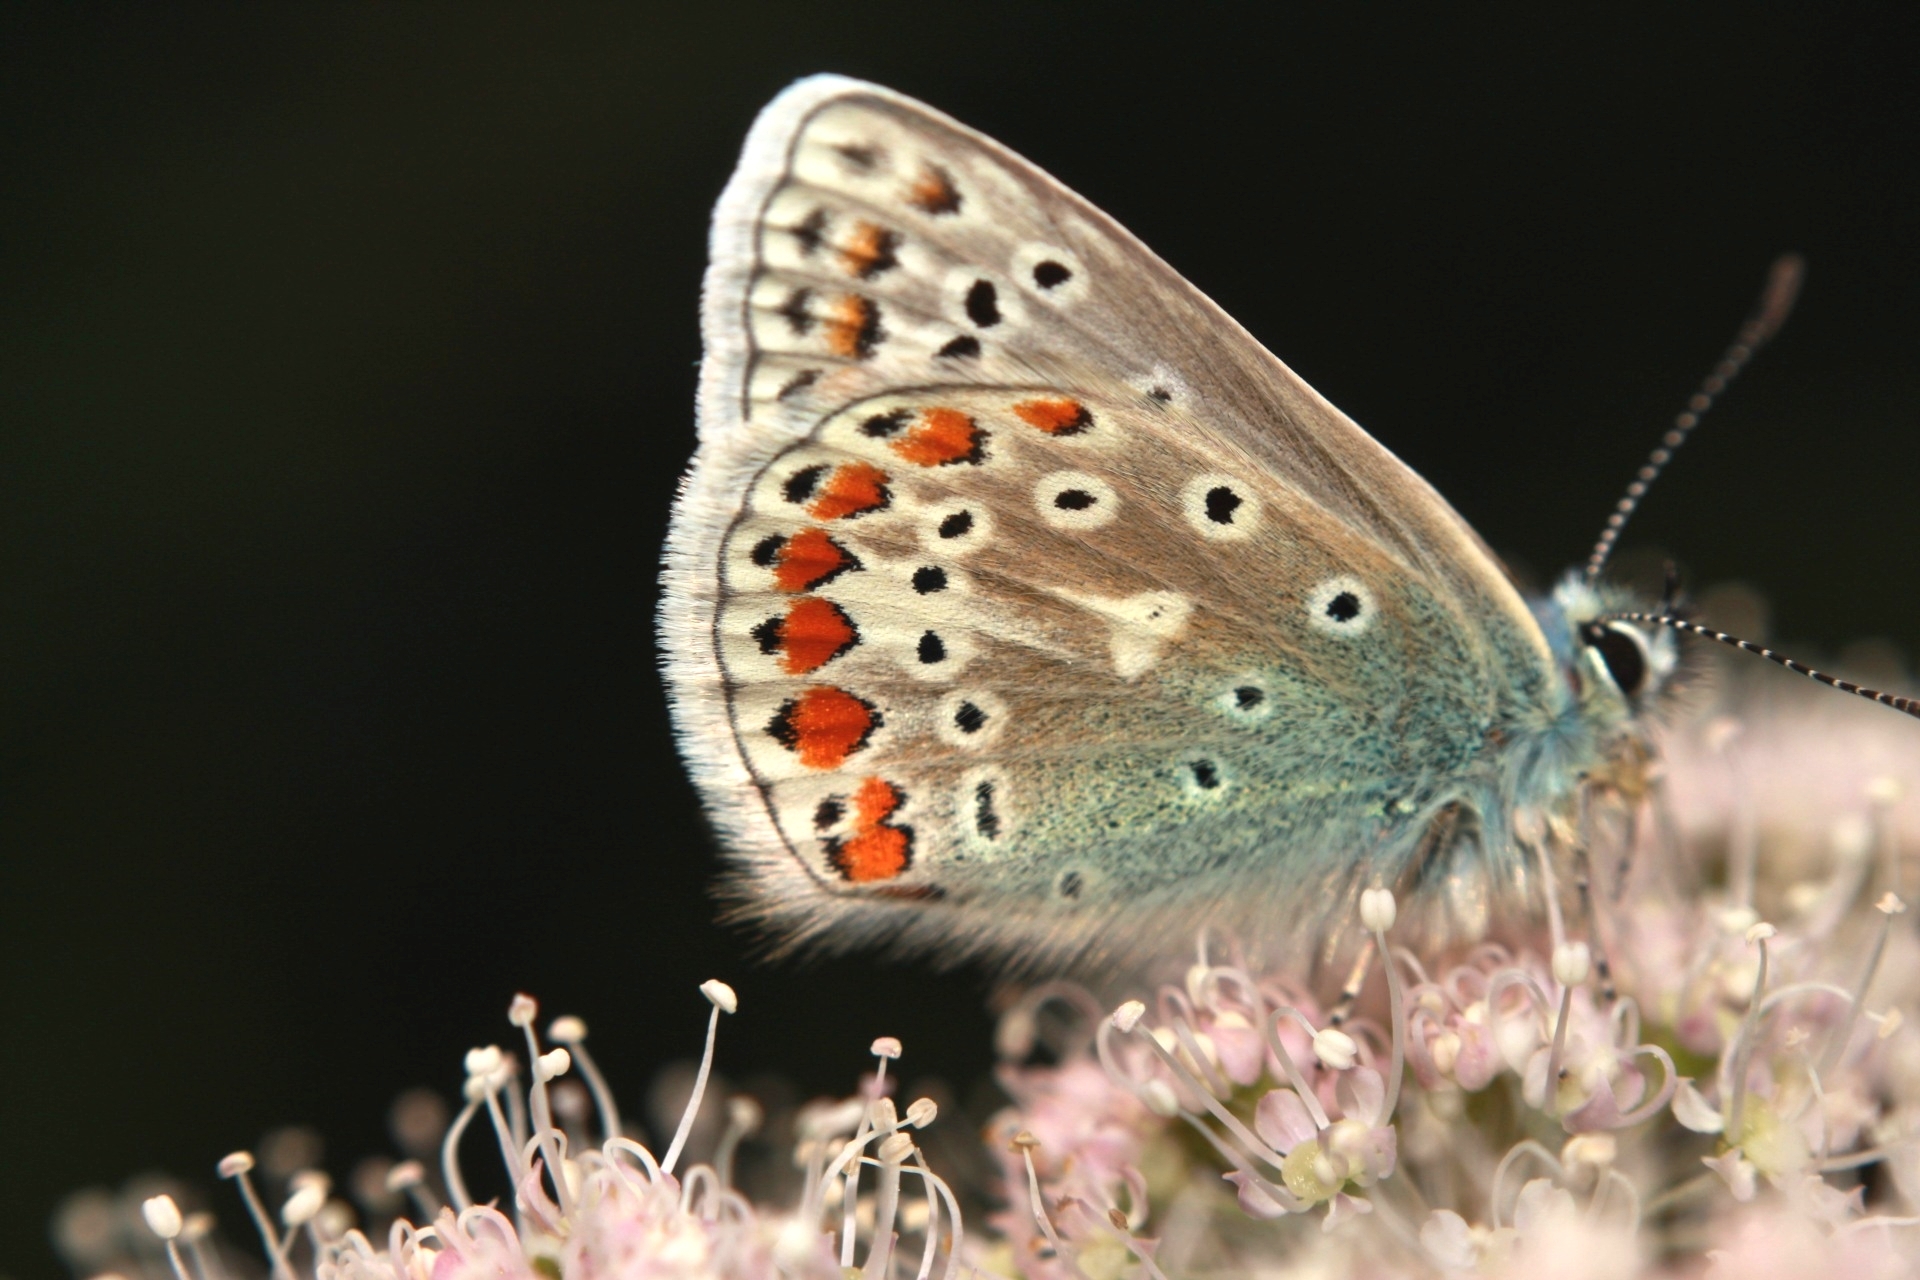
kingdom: Animalia
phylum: Arthropoda
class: Insecta
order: Lepidoptera
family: Lycaenidae
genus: Polyommatus
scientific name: Polyommatus icarus
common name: Common blue
